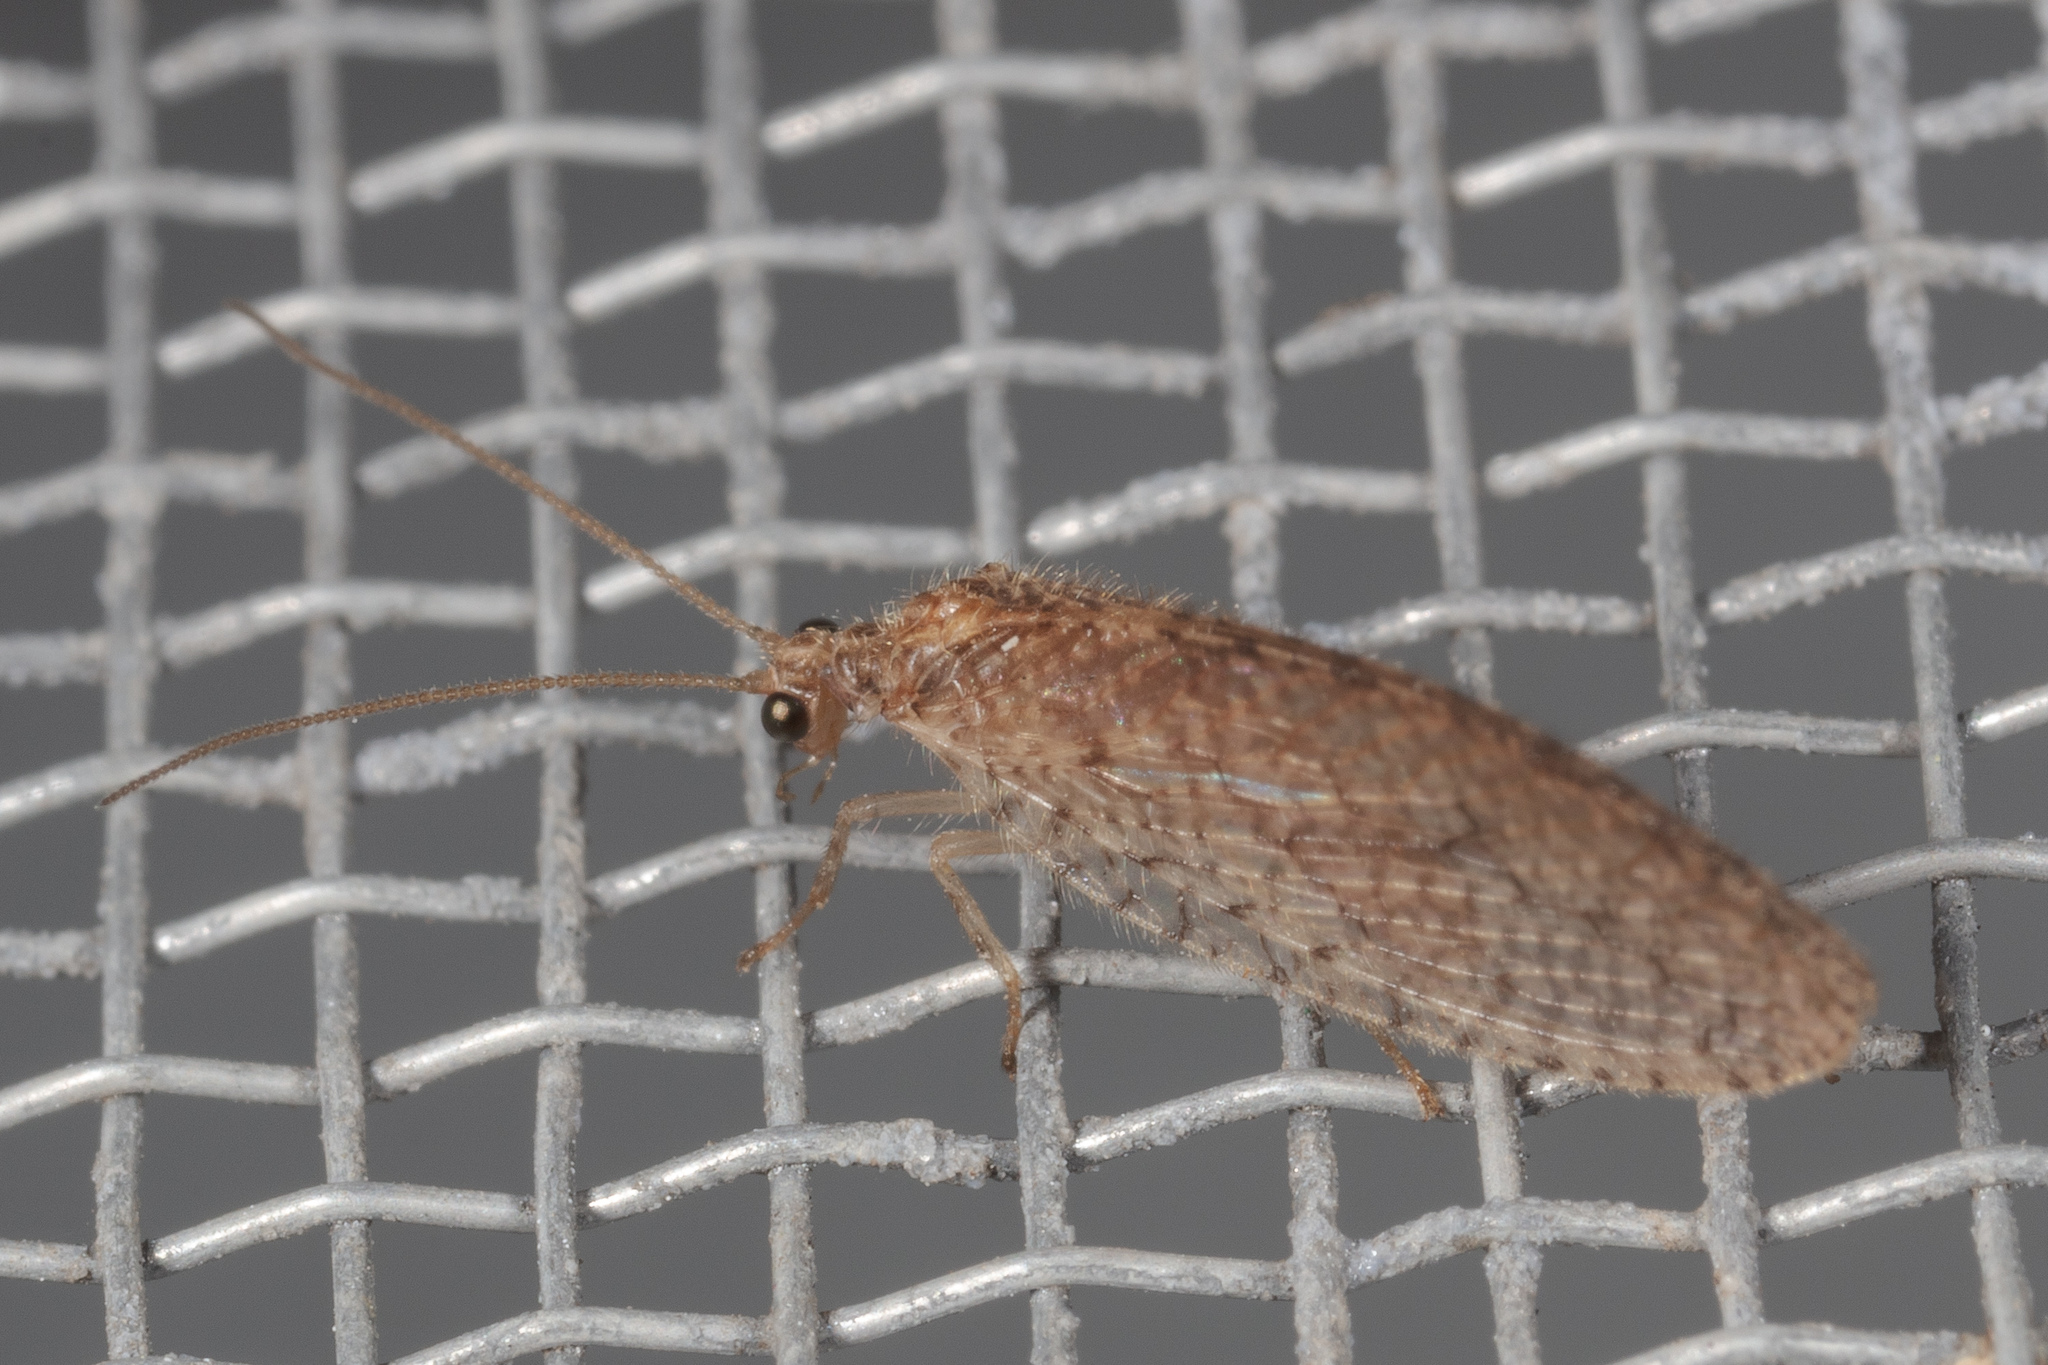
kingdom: Animalia
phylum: Arthropoda
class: Insecta
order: Neuroptera
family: Hemerobiidae
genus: Micromus
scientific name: Micromus posticus
